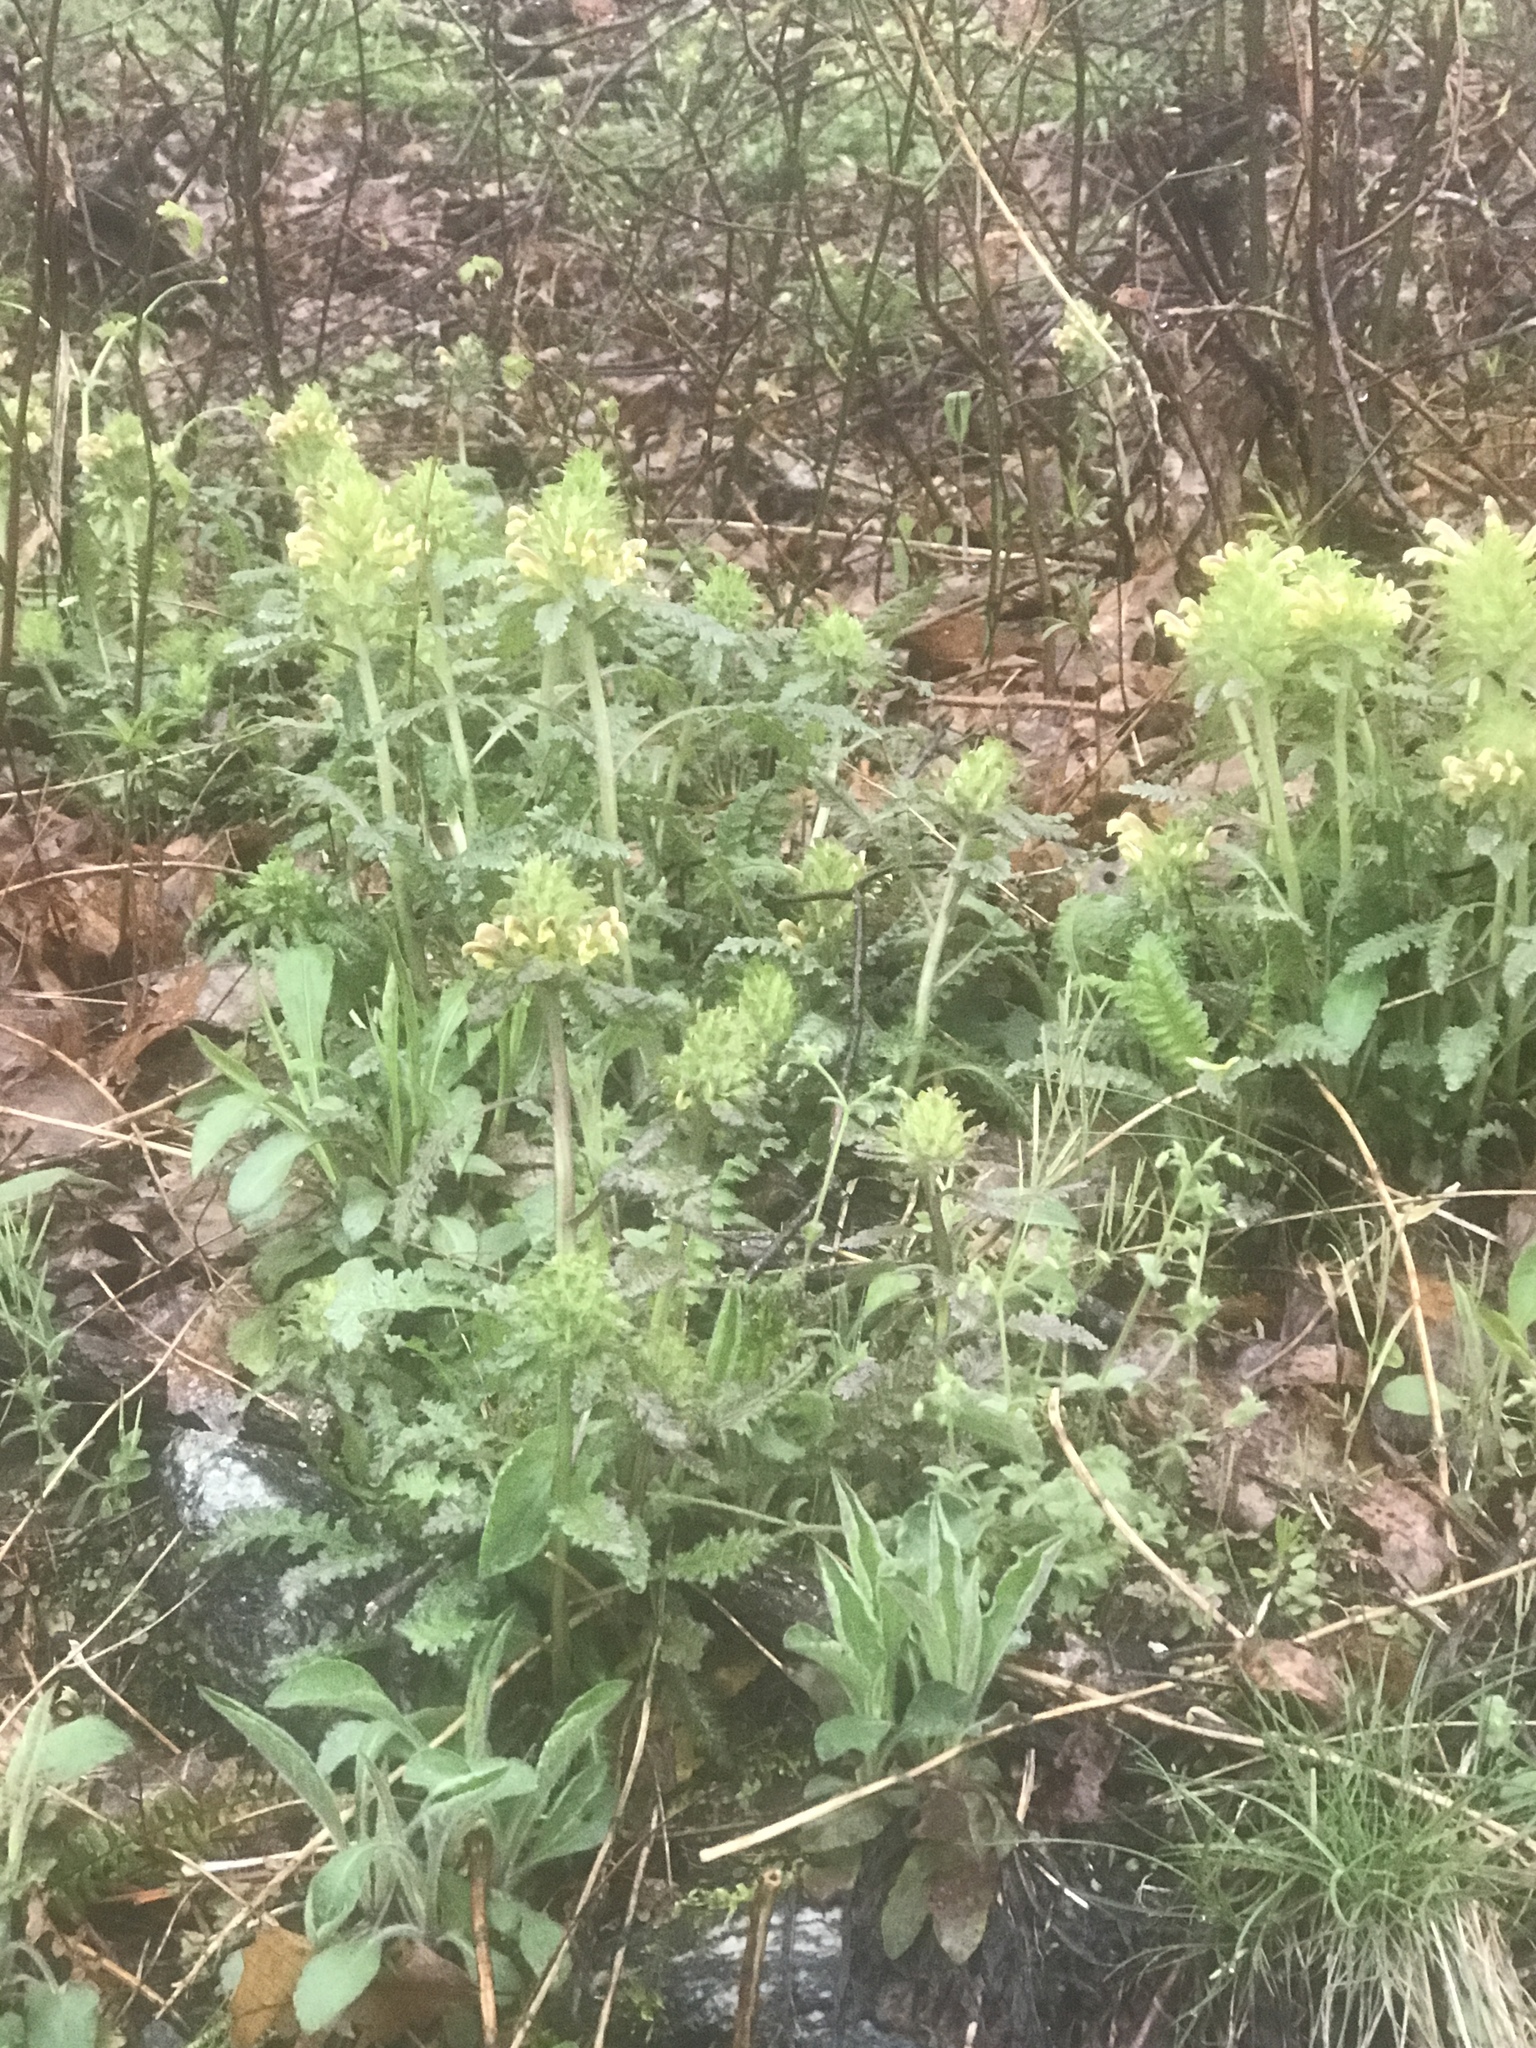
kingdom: Plantae
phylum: Tracheophyta
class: Magnoliopsida
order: Lamiales
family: Orobanchaceae
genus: Pedicularis
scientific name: Pedicularis canadensis
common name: Early lousewort
